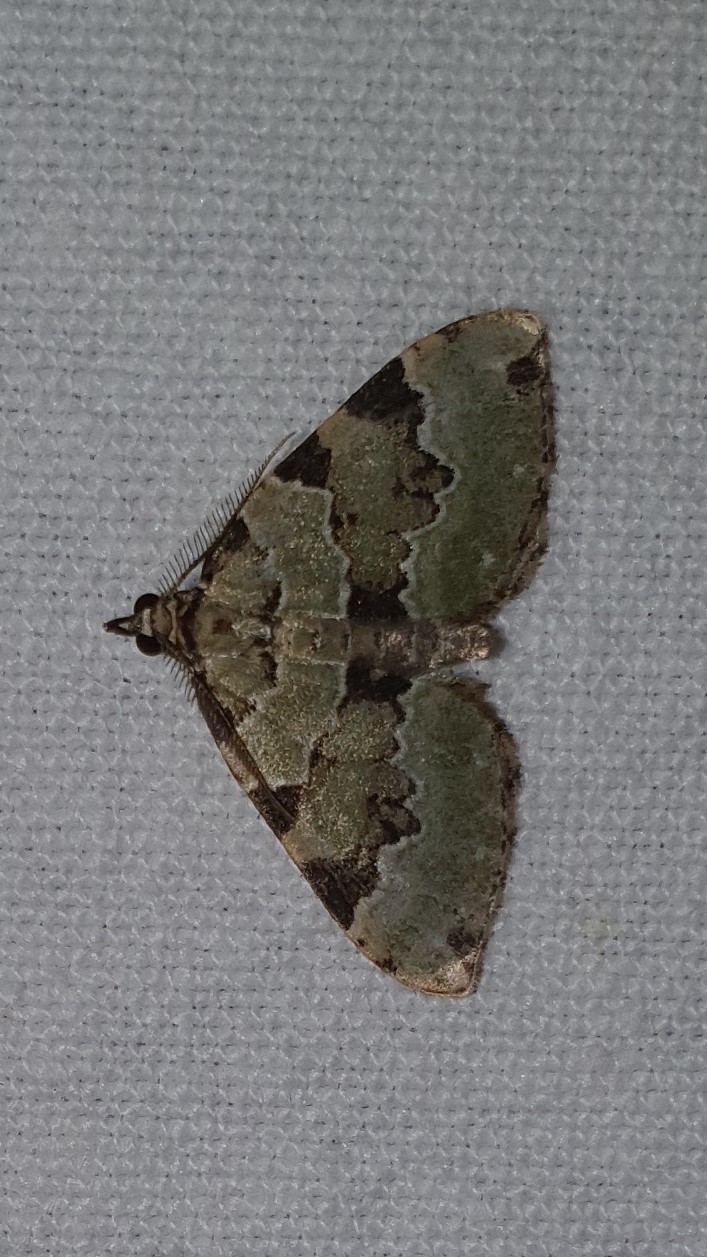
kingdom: Animalia
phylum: Arthropoda
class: Insecta
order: Lepidoptera
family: Geometridae
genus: Colostygia
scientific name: Colostygia pectinataria
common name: Green carpet
